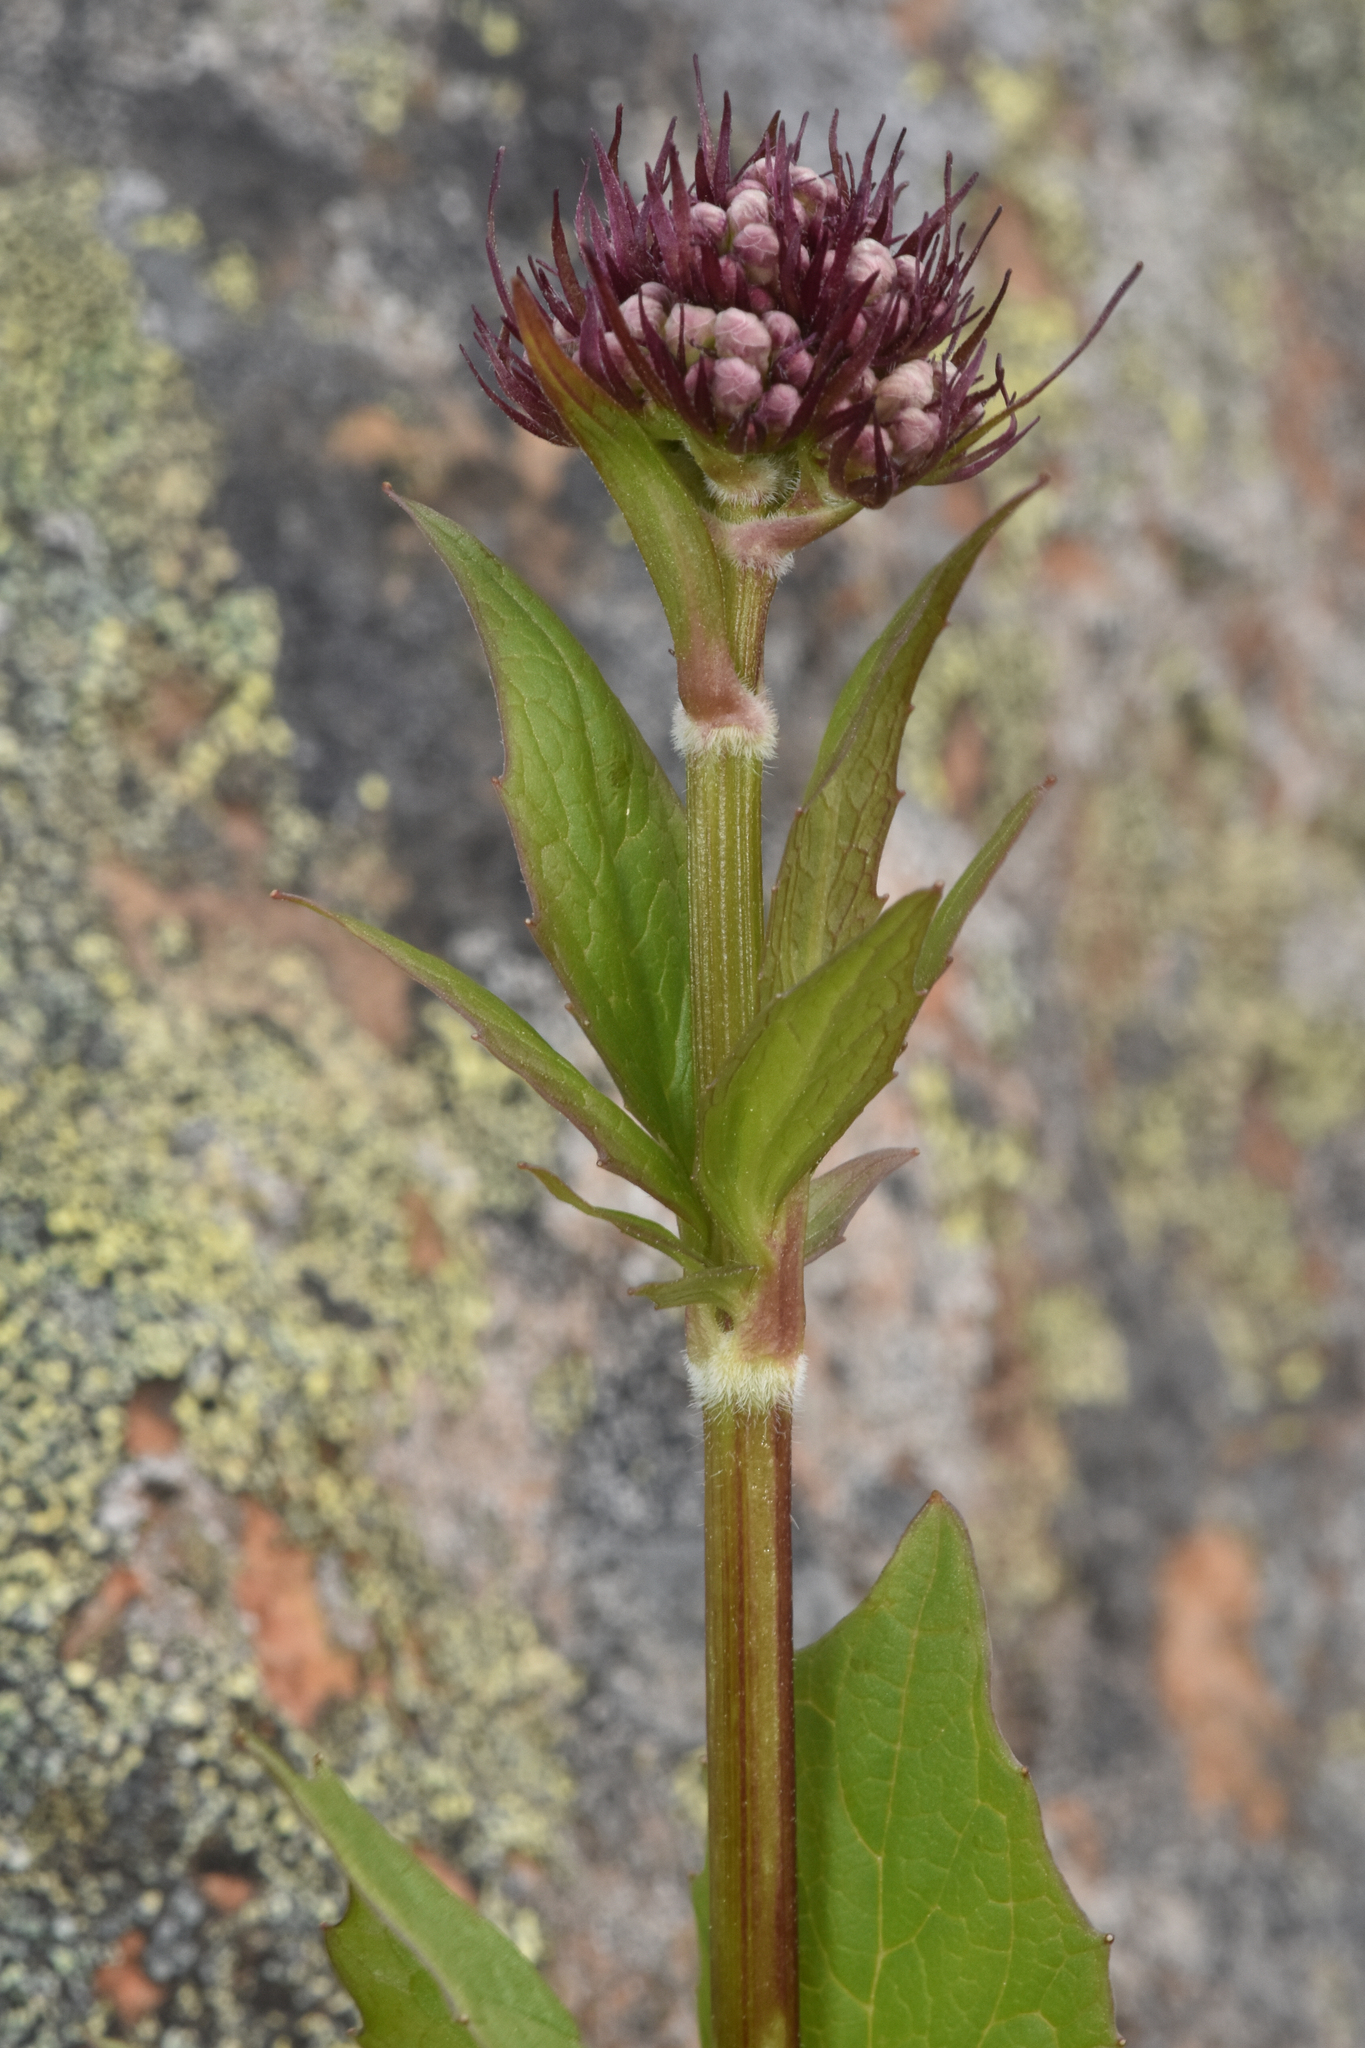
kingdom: Plantae
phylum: Tracheophyta
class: Magnoliopsida
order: Dipsacales
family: Caprifoliaceae
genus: Valeriana
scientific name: Valeriana sitchensis
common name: Pacific valerian
